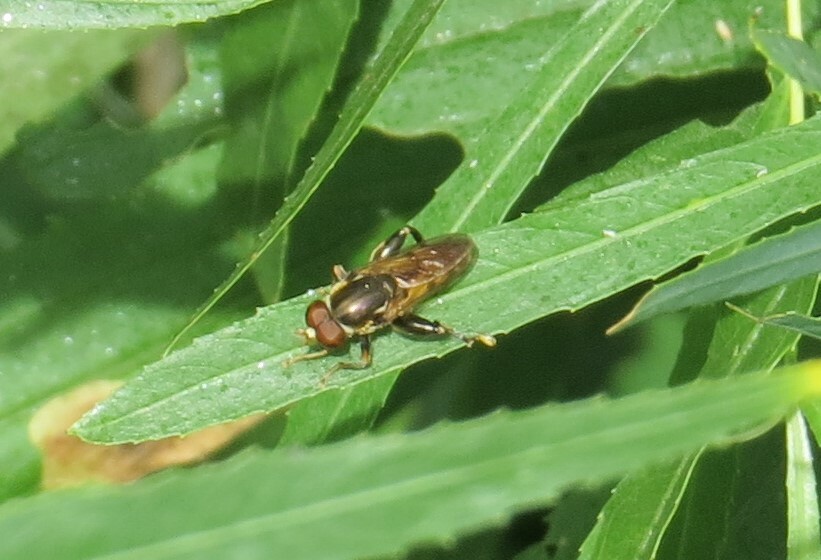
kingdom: Animalia
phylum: Arthropoda
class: Insecta
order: Diptera
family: Syrphidae
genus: Tropidia
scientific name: Tropidia quadrata
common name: Common thick-legged fly
